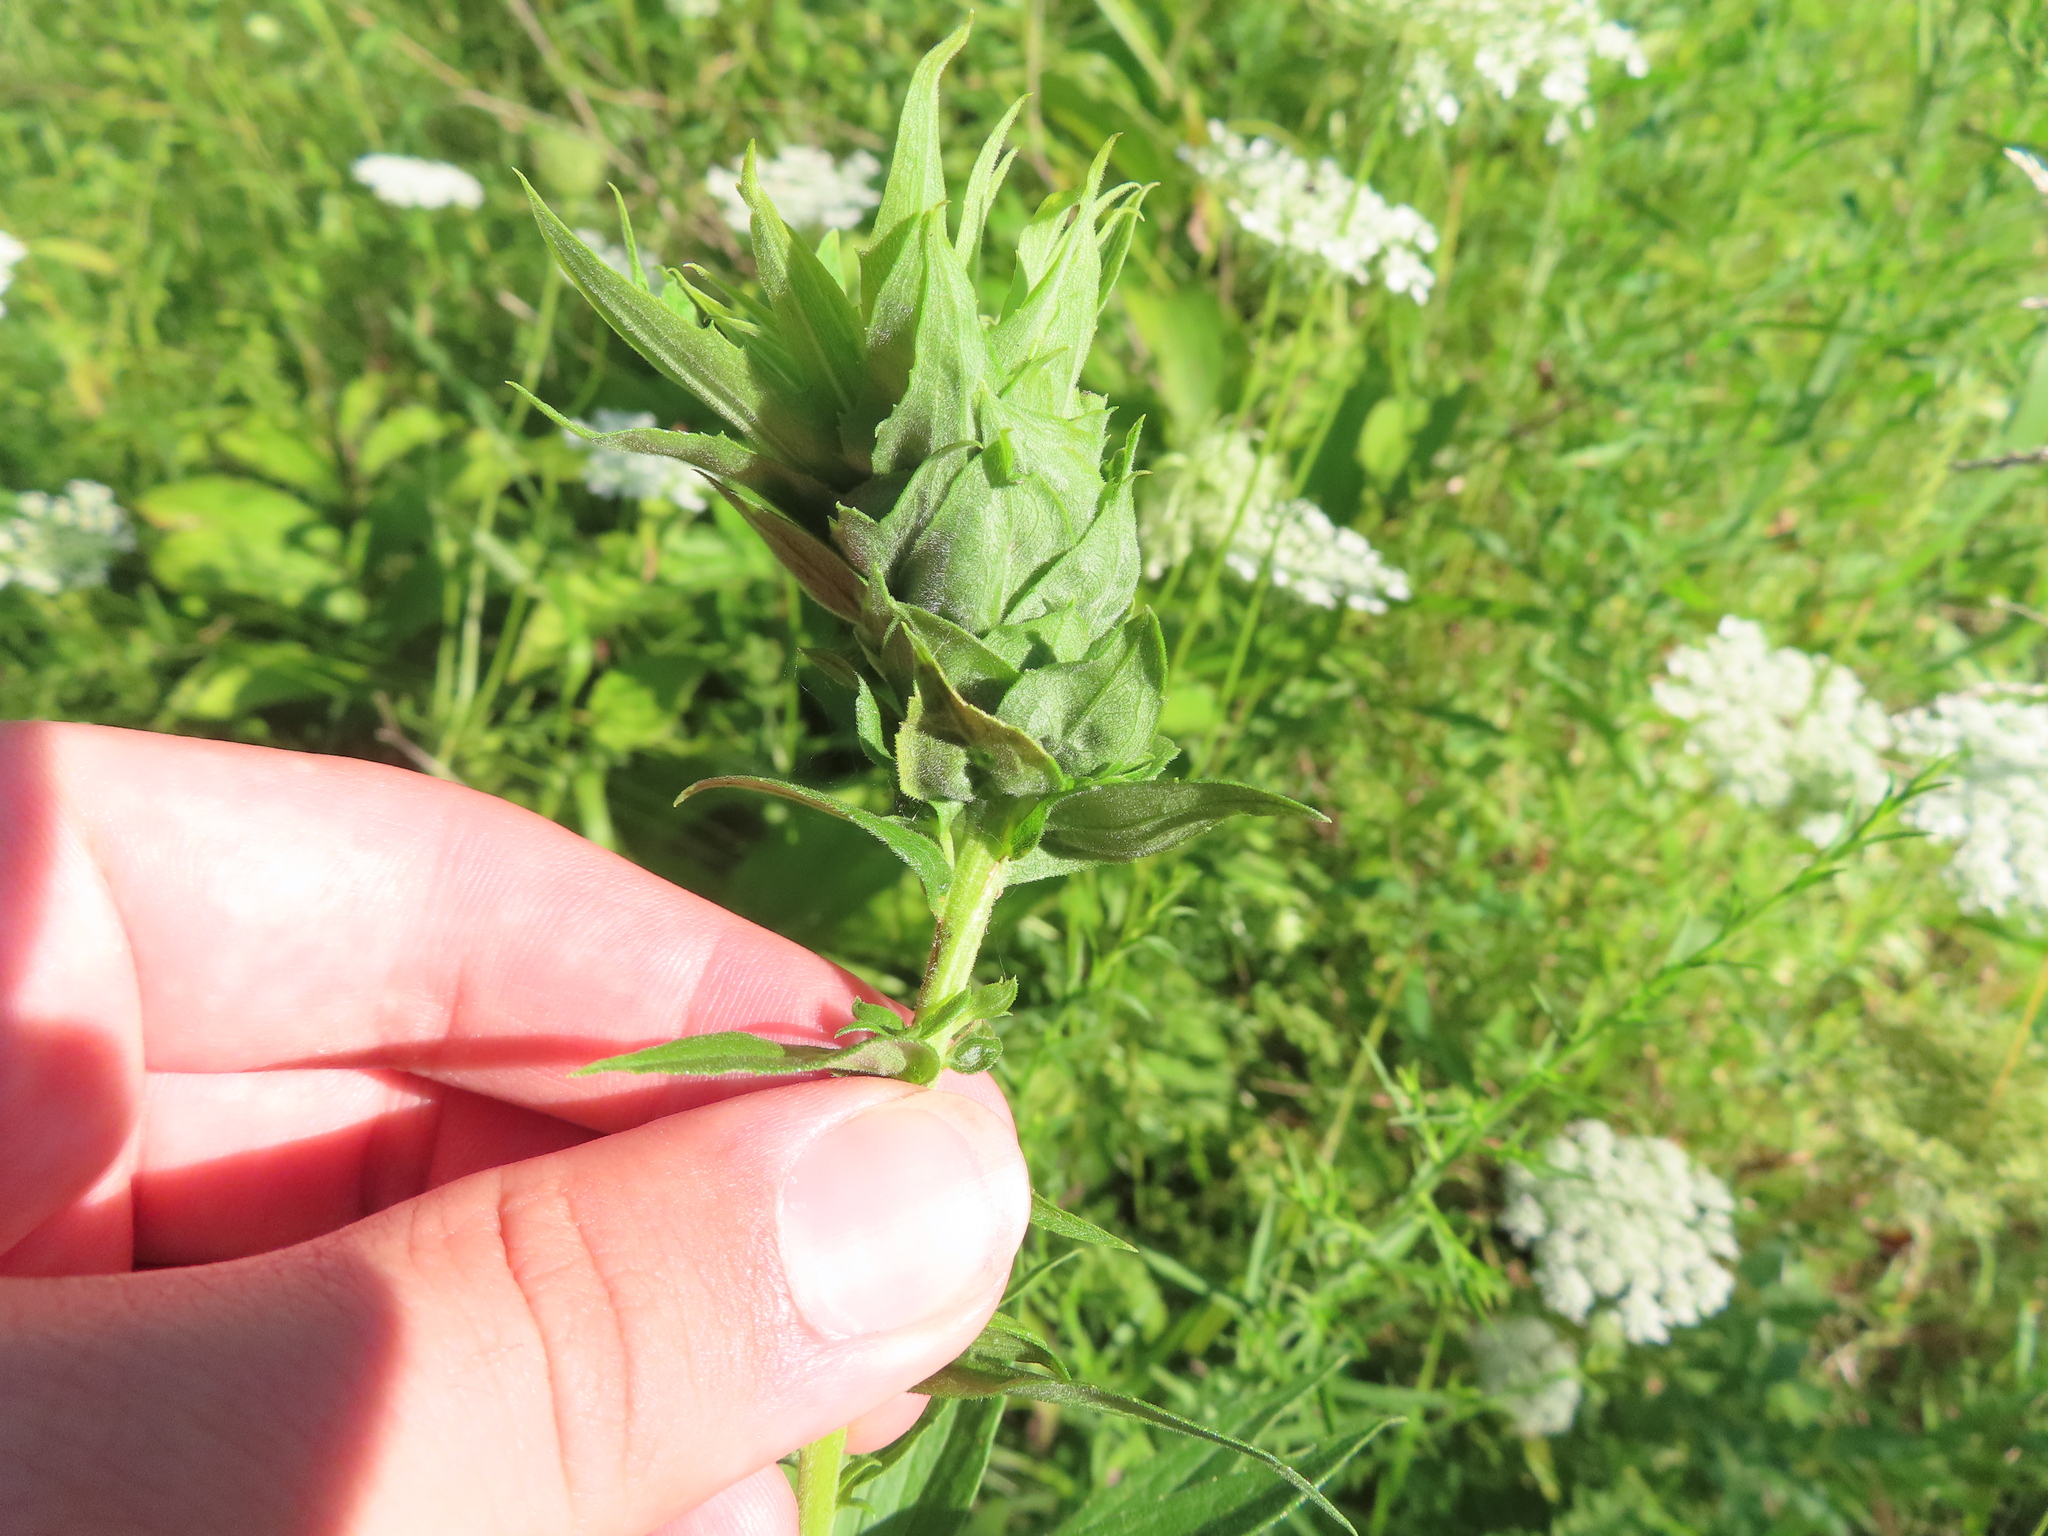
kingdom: Animalia
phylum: Arthropoda
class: Insecta
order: Diptera
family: Cecidomyiidae
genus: Rhopalomyia
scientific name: Rhopalomyia solidaginis
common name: Goldenrod bunch gall midge
